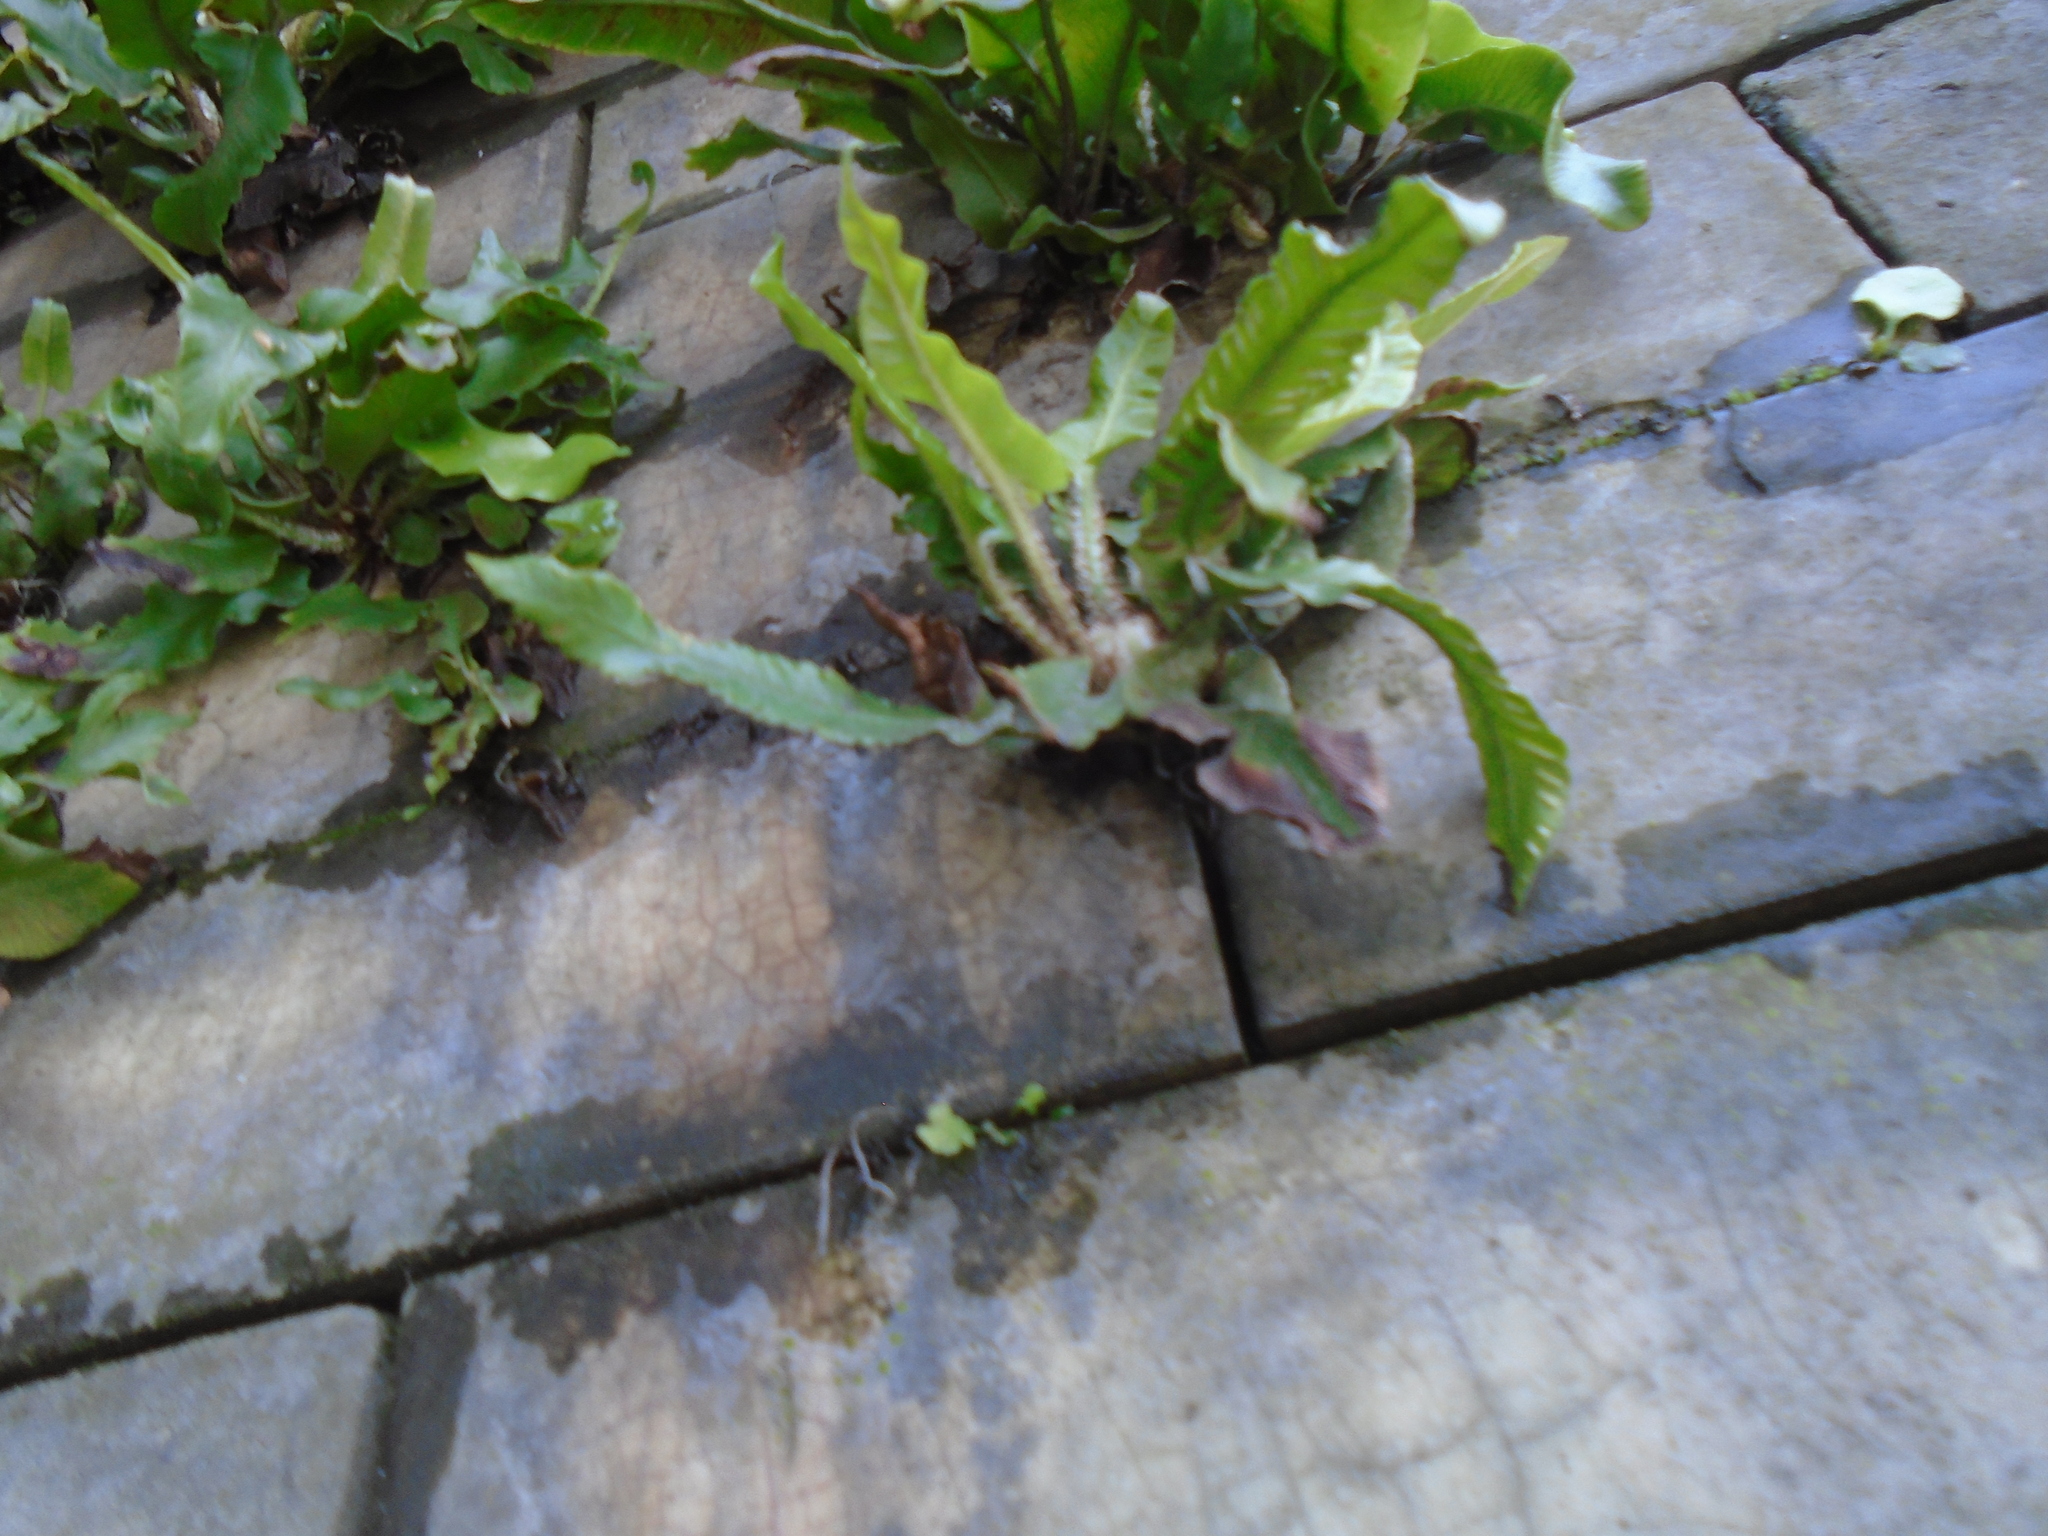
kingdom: Plantae
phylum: Tracheophyta
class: Polypodiopsida
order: Polypodiales
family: Aspleniaceae
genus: Asplenium
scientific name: Asplenium scolopendrium
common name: Hart's-tongue fern
